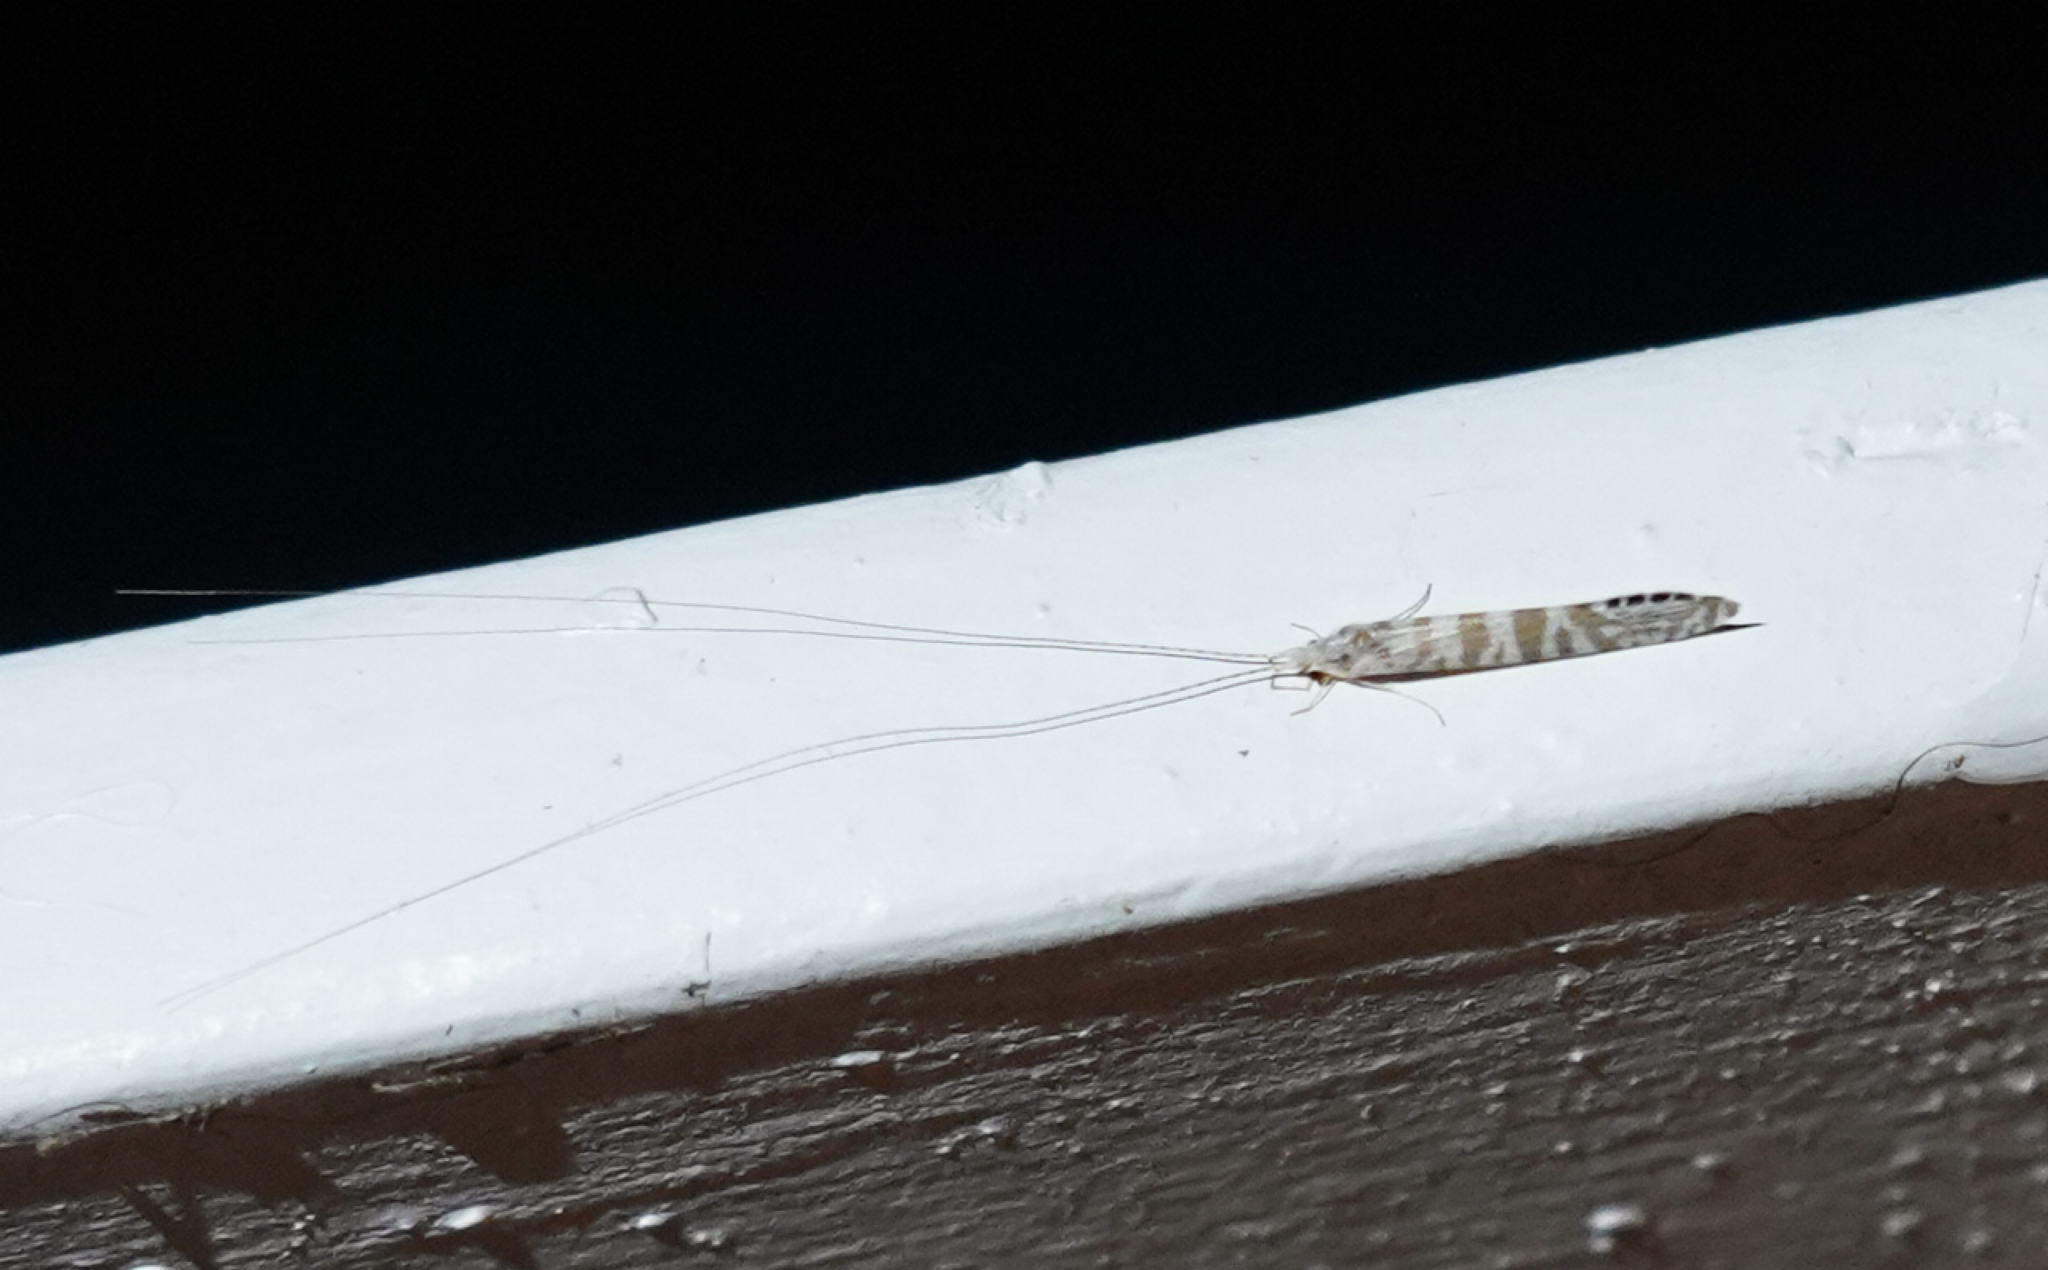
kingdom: Animalia
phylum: Arthropoda
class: Insecta
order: Trichoptera
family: Leptoceridae
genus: Nectopsyche
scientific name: Nectopsyche exquisita
